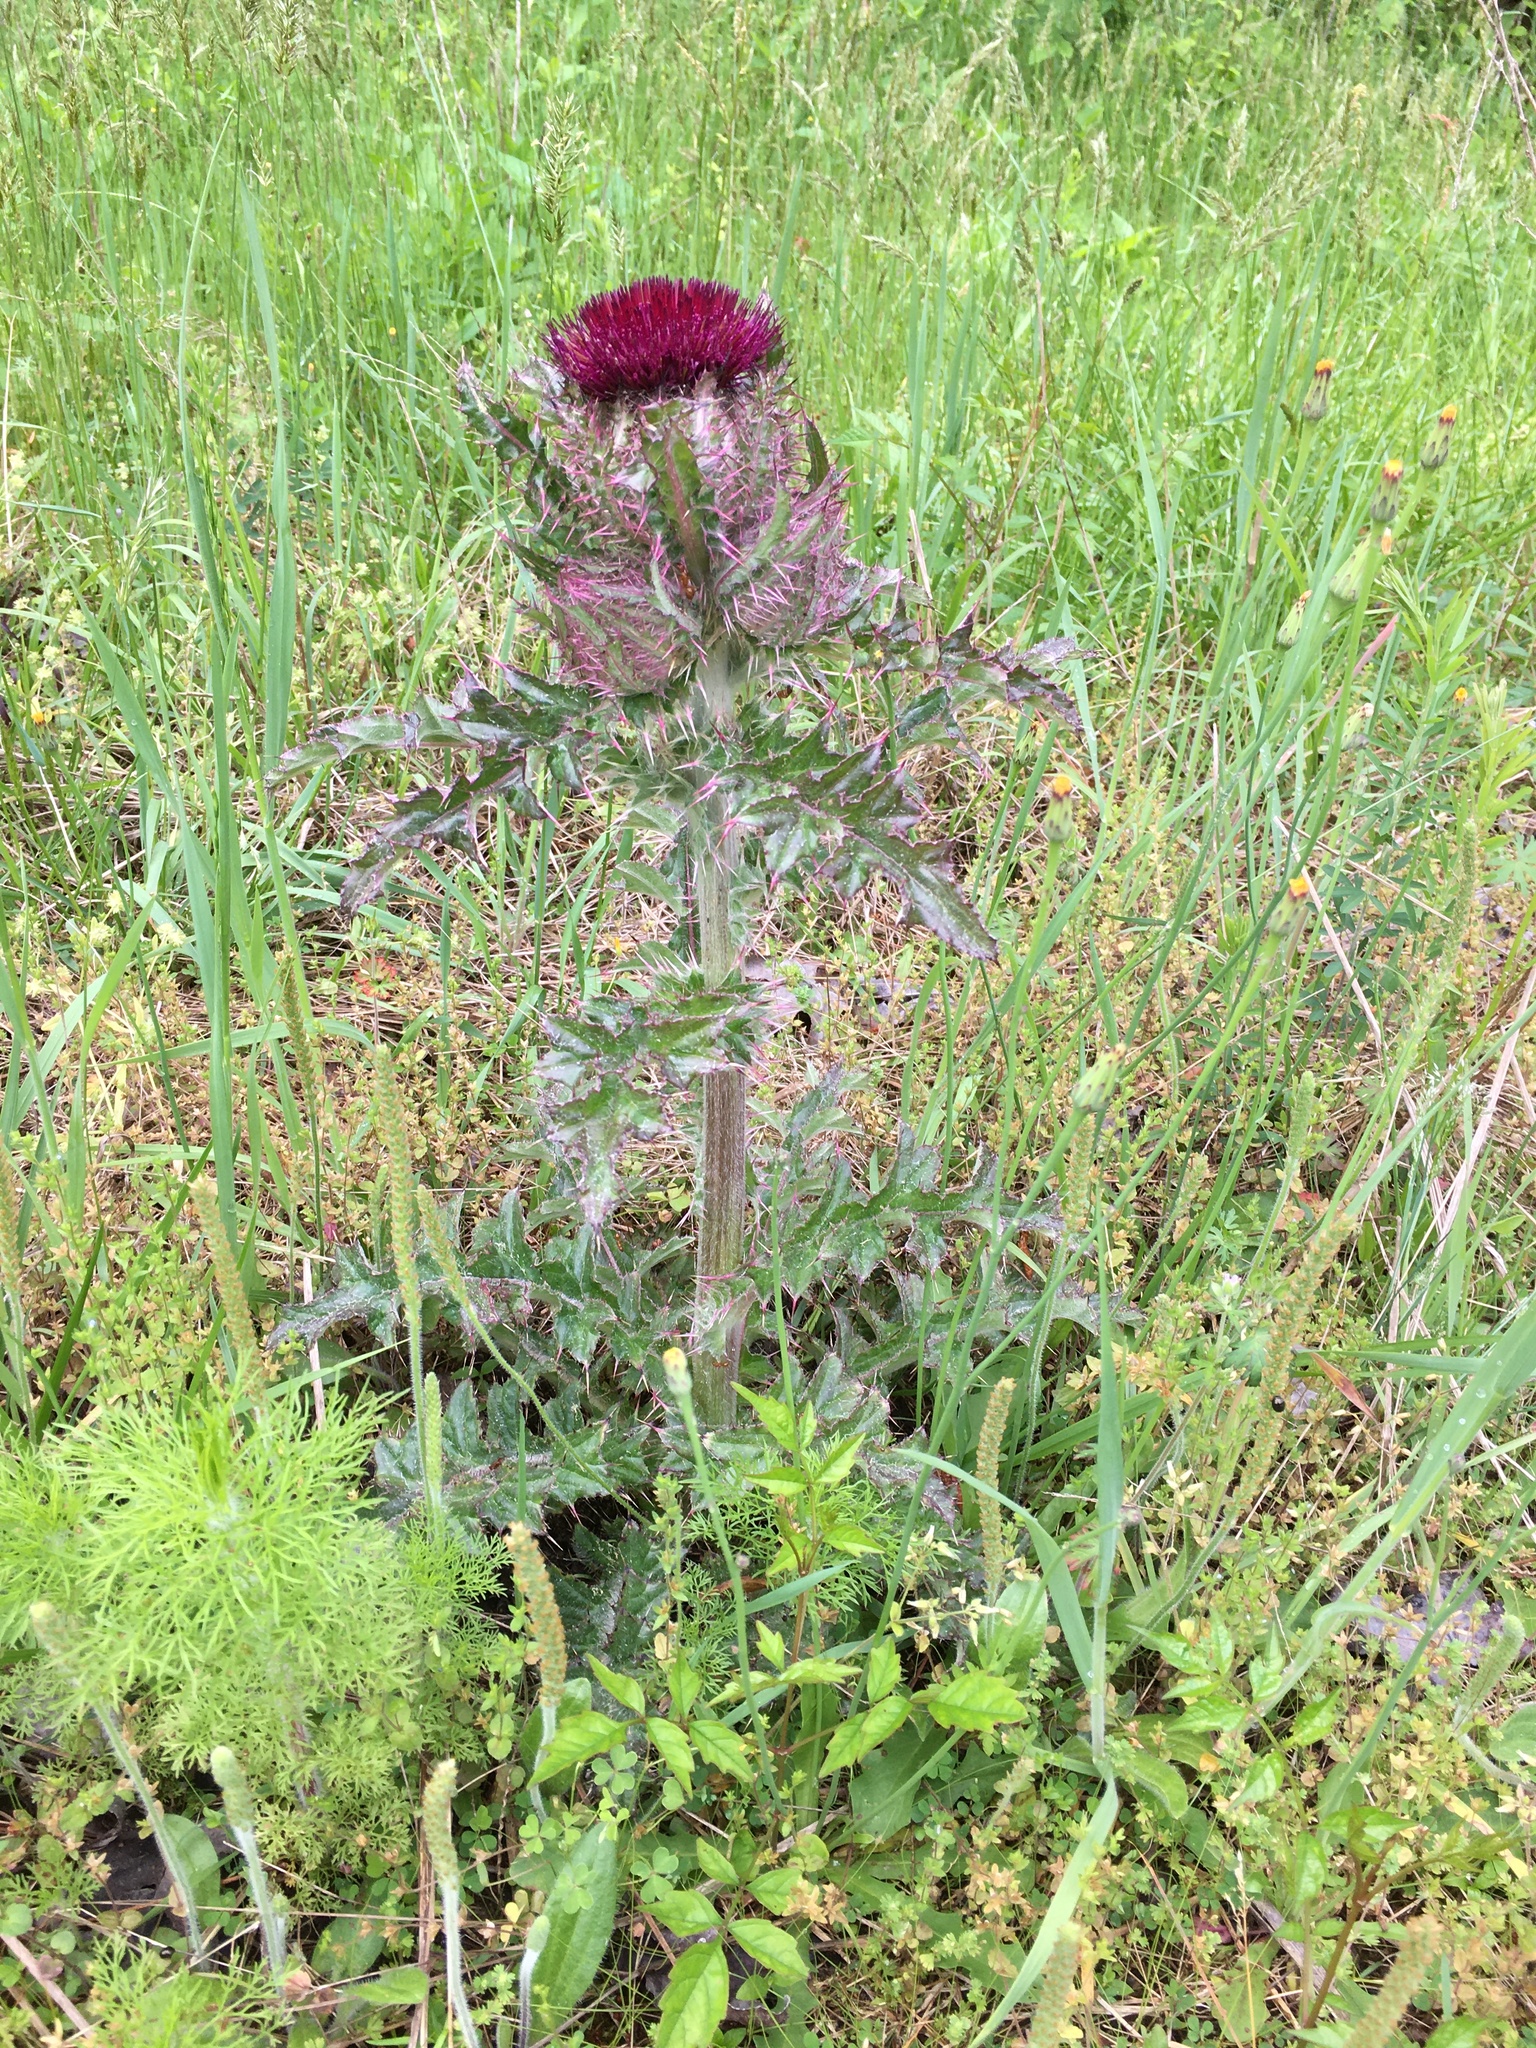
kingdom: Plantae
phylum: Tracheophyta
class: Magnoliopsida
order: Asterales
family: Asteraceae
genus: Cirsium
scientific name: Cirsium horridulum
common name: Bristly thistle
